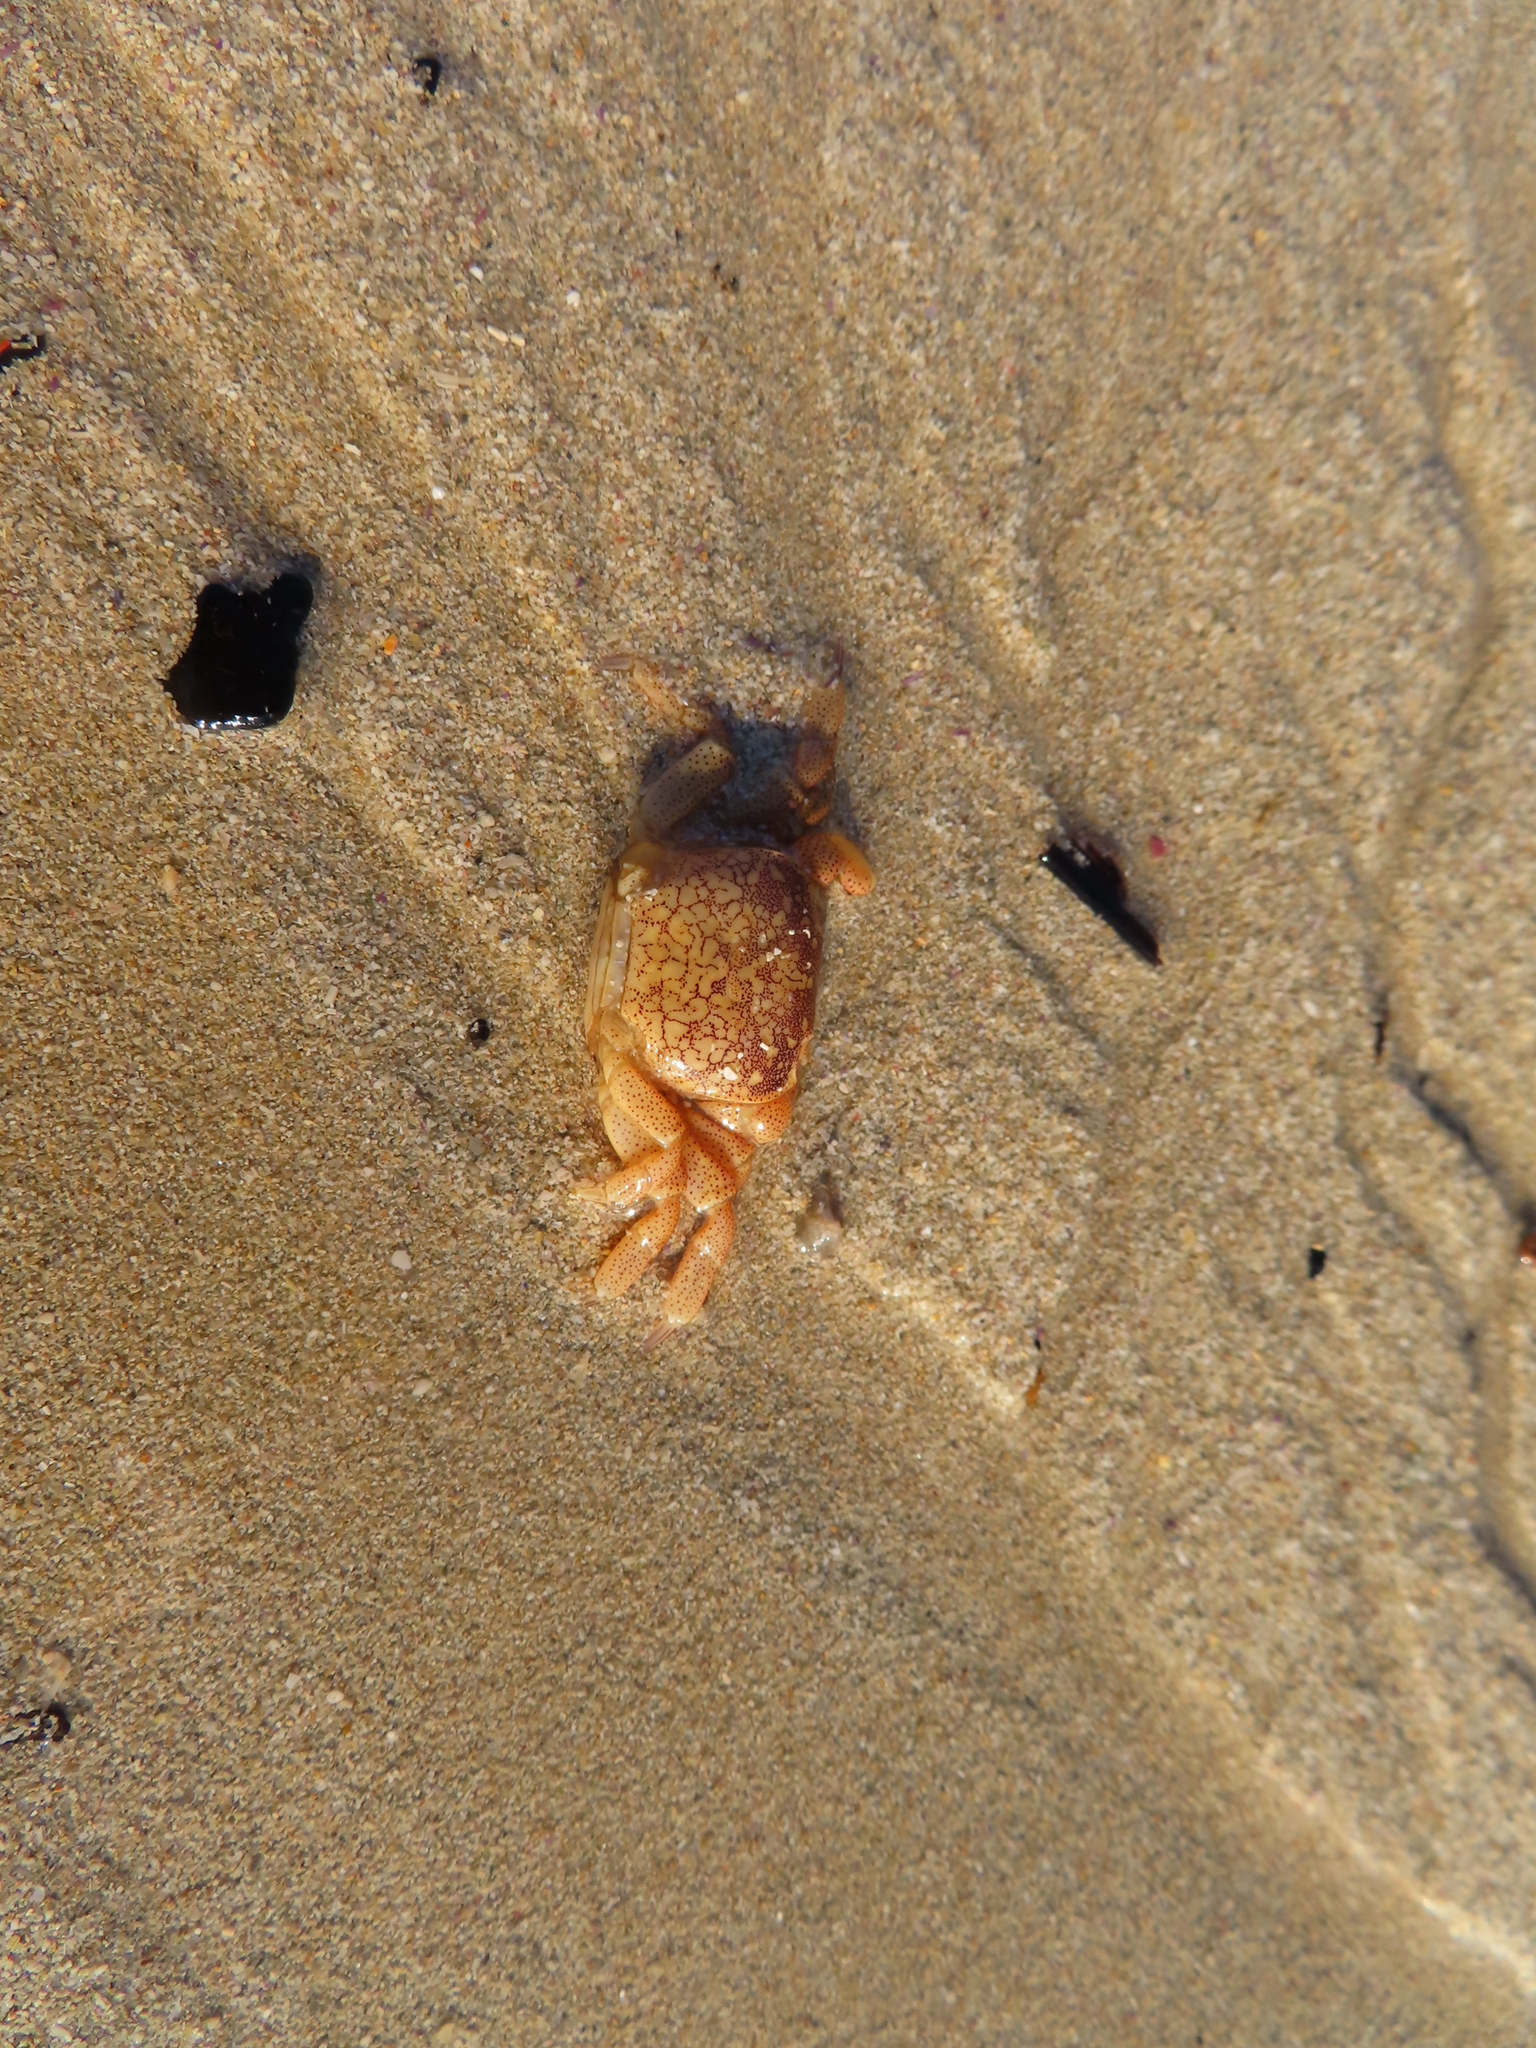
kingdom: Animalia
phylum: Arthropoda
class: Malacostraca
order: Decapoda
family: Plagusiidae
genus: Guinusia
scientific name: Guinusia chabrus
